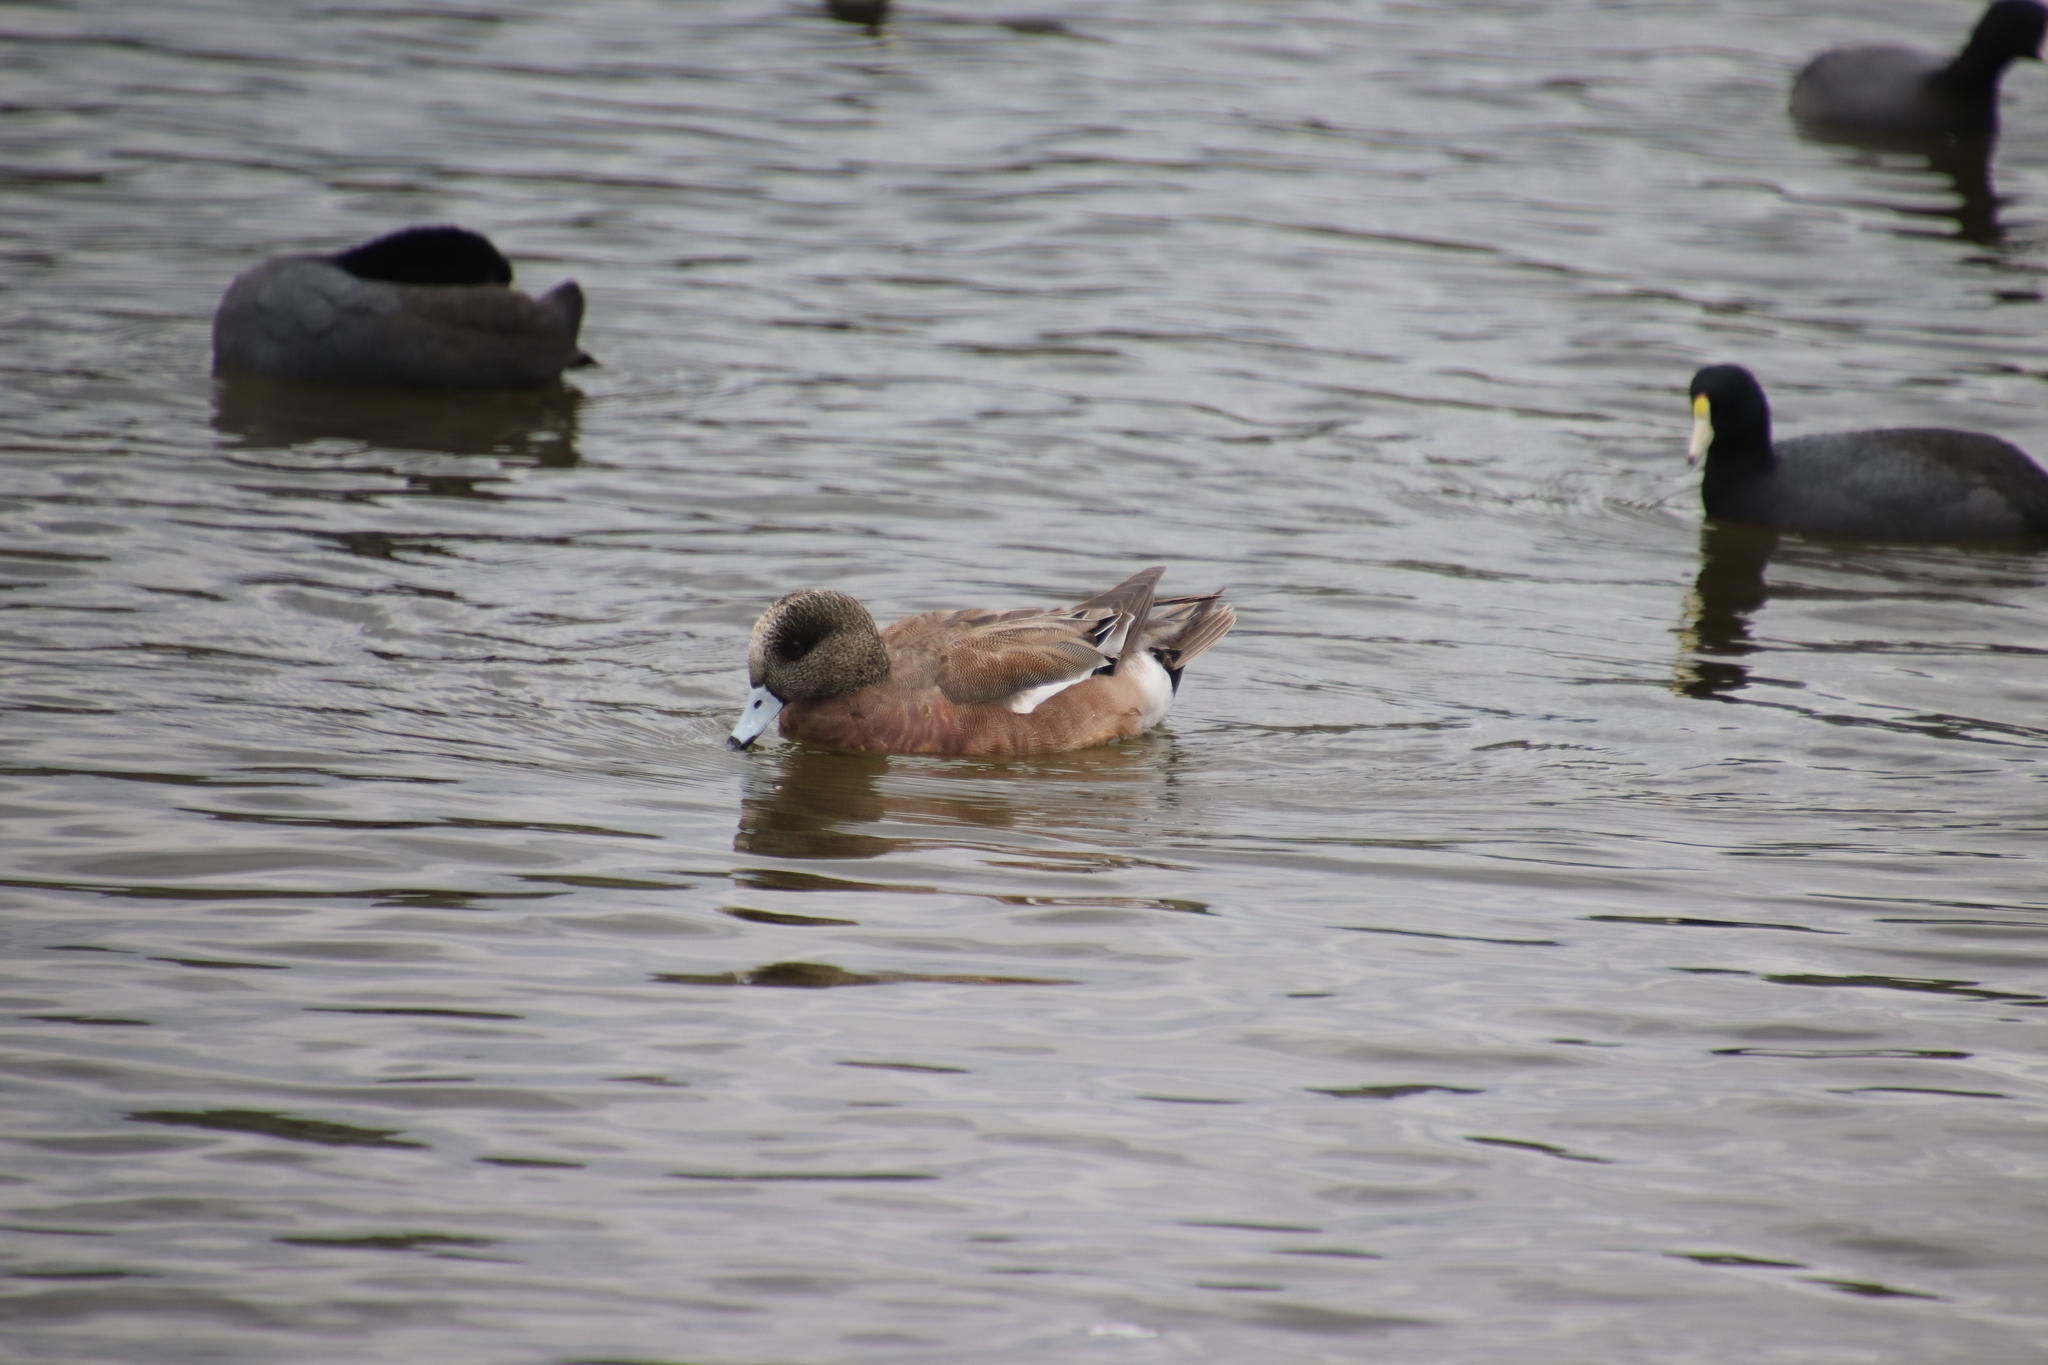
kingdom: Animalia
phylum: Chordata
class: Aves
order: Anseriformes
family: Anatidae
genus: Mareca
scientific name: Mareca americana
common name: American wigeon
